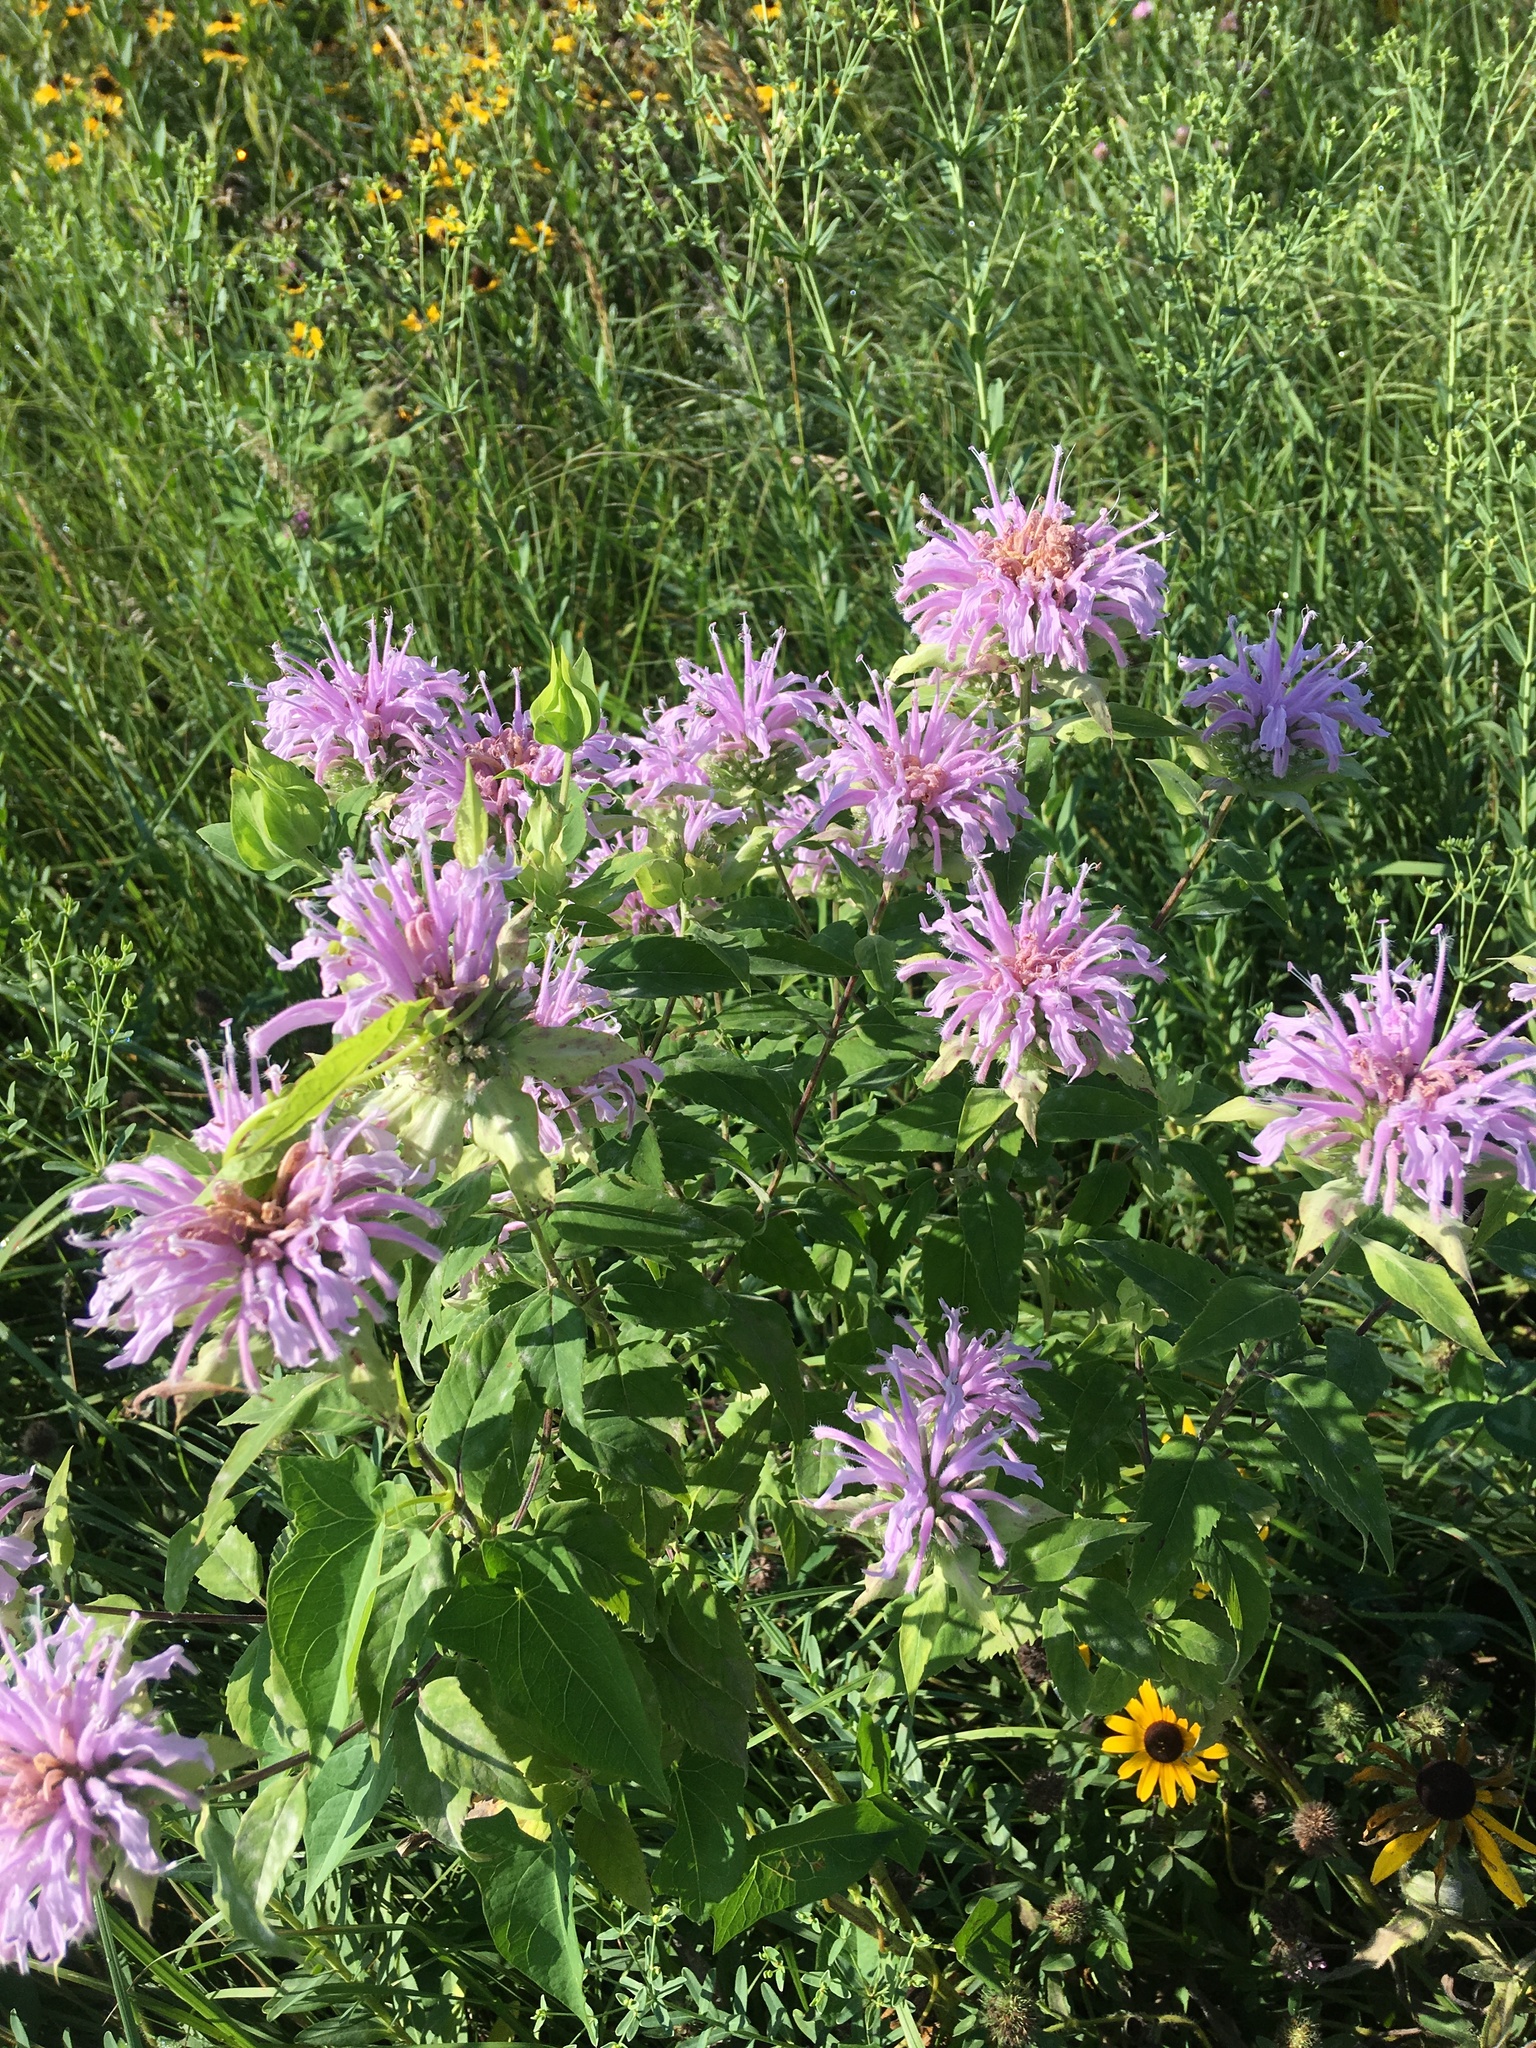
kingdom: Plantae
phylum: Tracheophyta
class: Magnoliopsida
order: Lamiales
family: Lamiaceae
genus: Monarda
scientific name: Monarda fistulosa
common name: Purple beebalm
